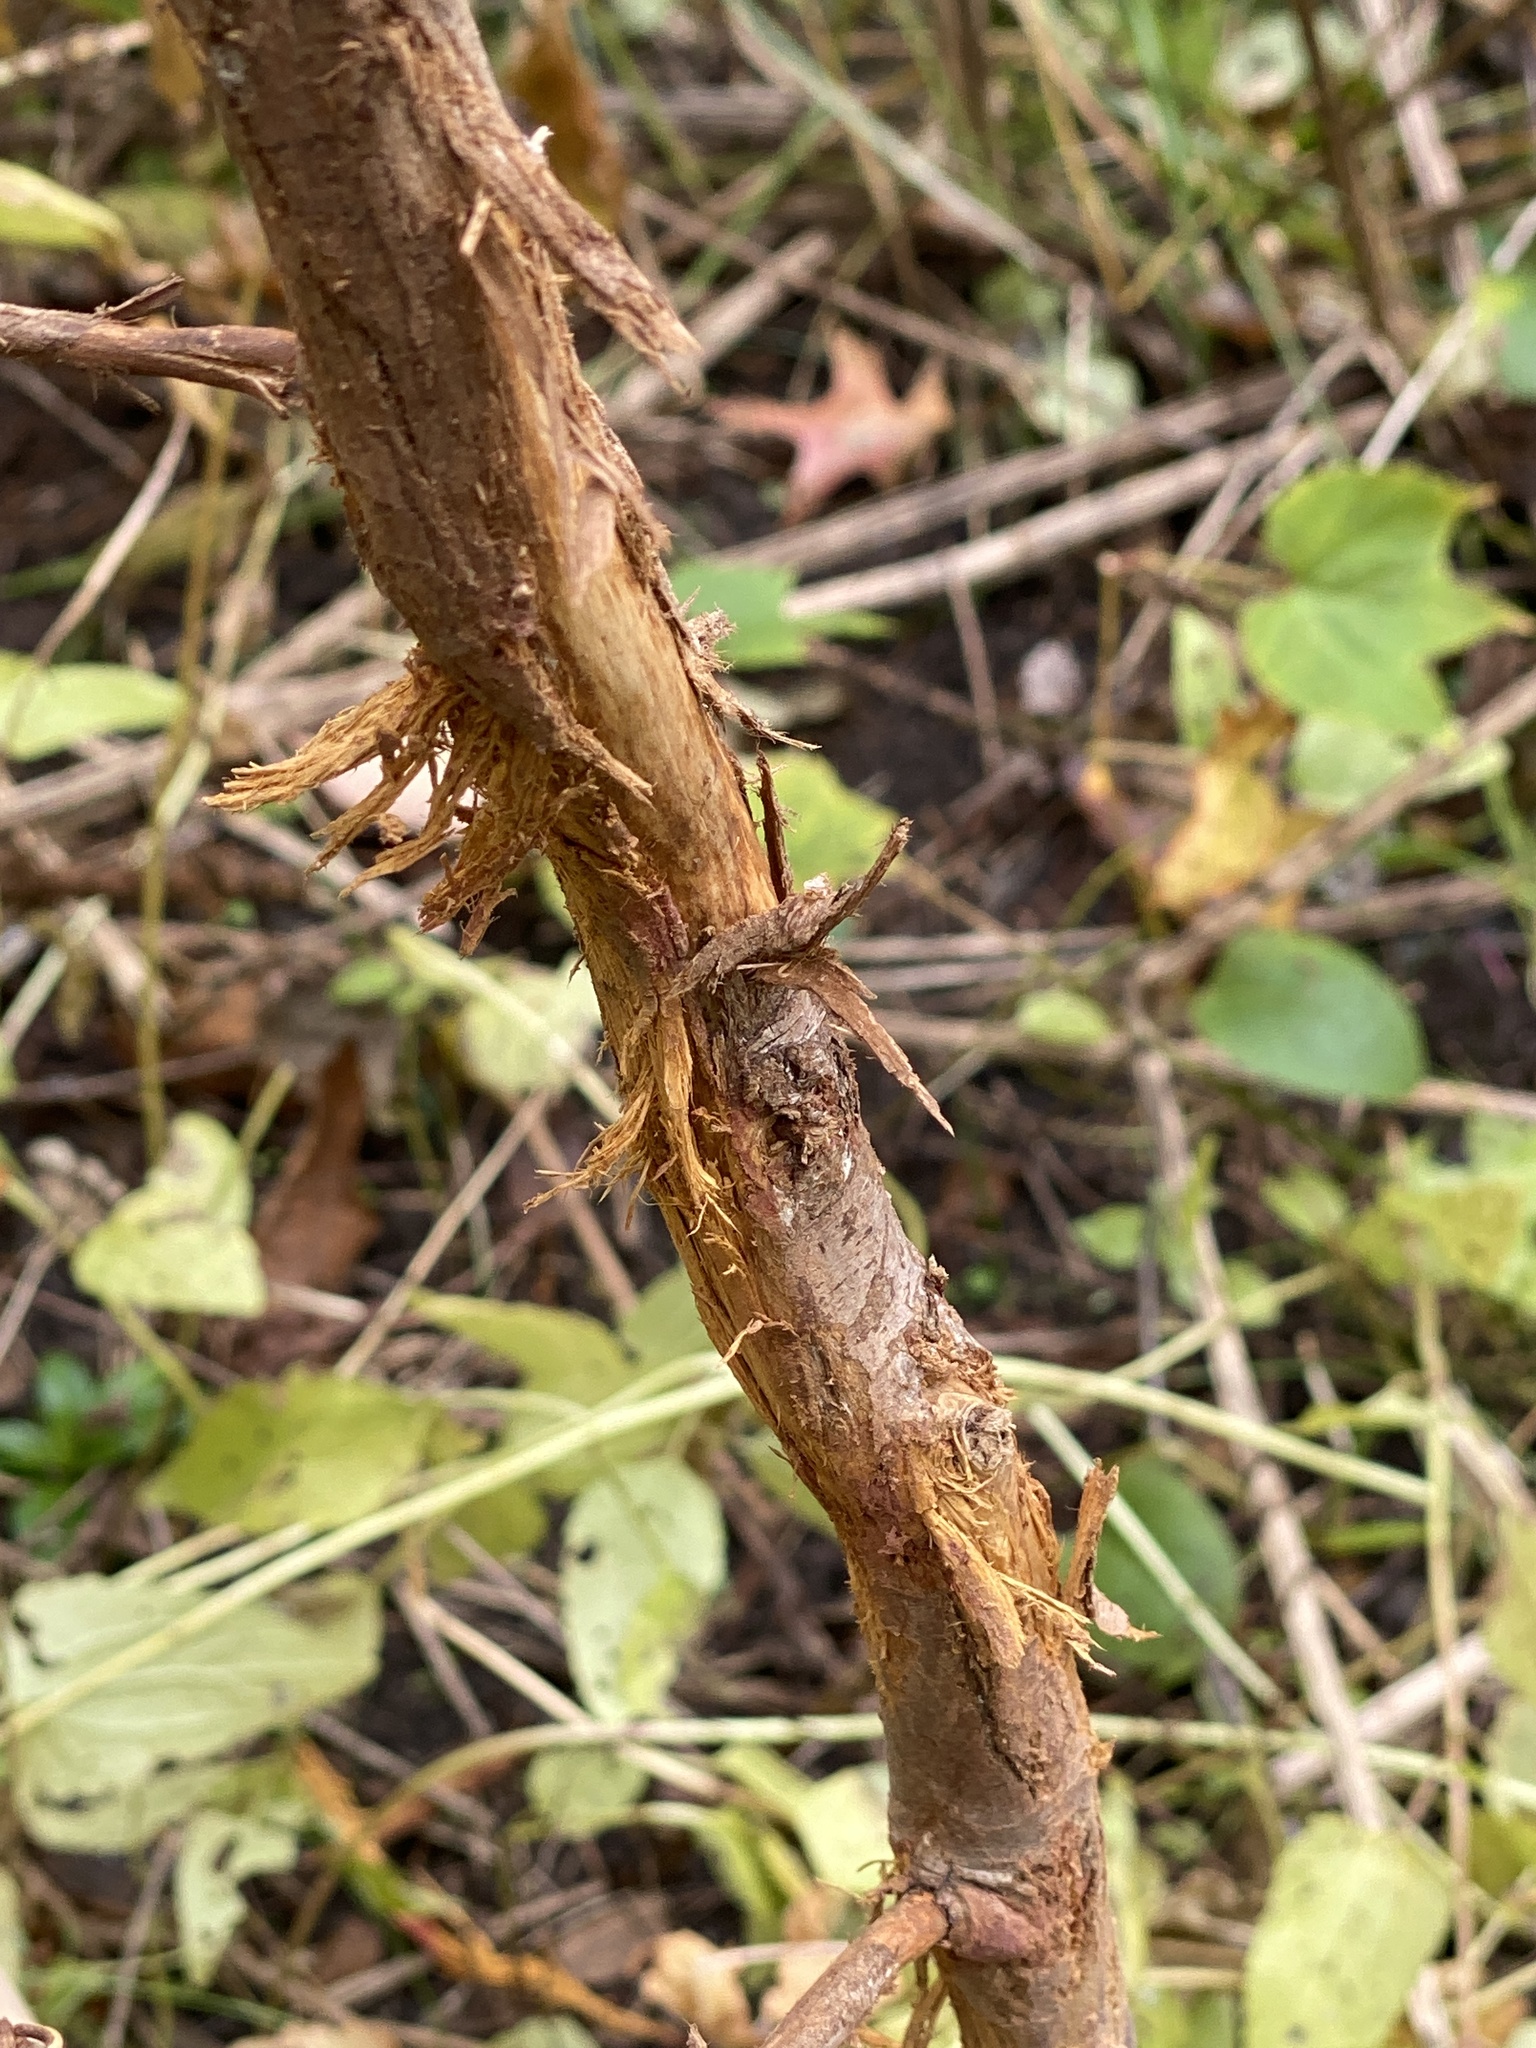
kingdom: Animalia
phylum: Chordata
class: Mammalia
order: Artiodactyla
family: Cervidae
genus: Odocoileus
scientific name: Odocoileus virginianus
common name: White-tailed deer
